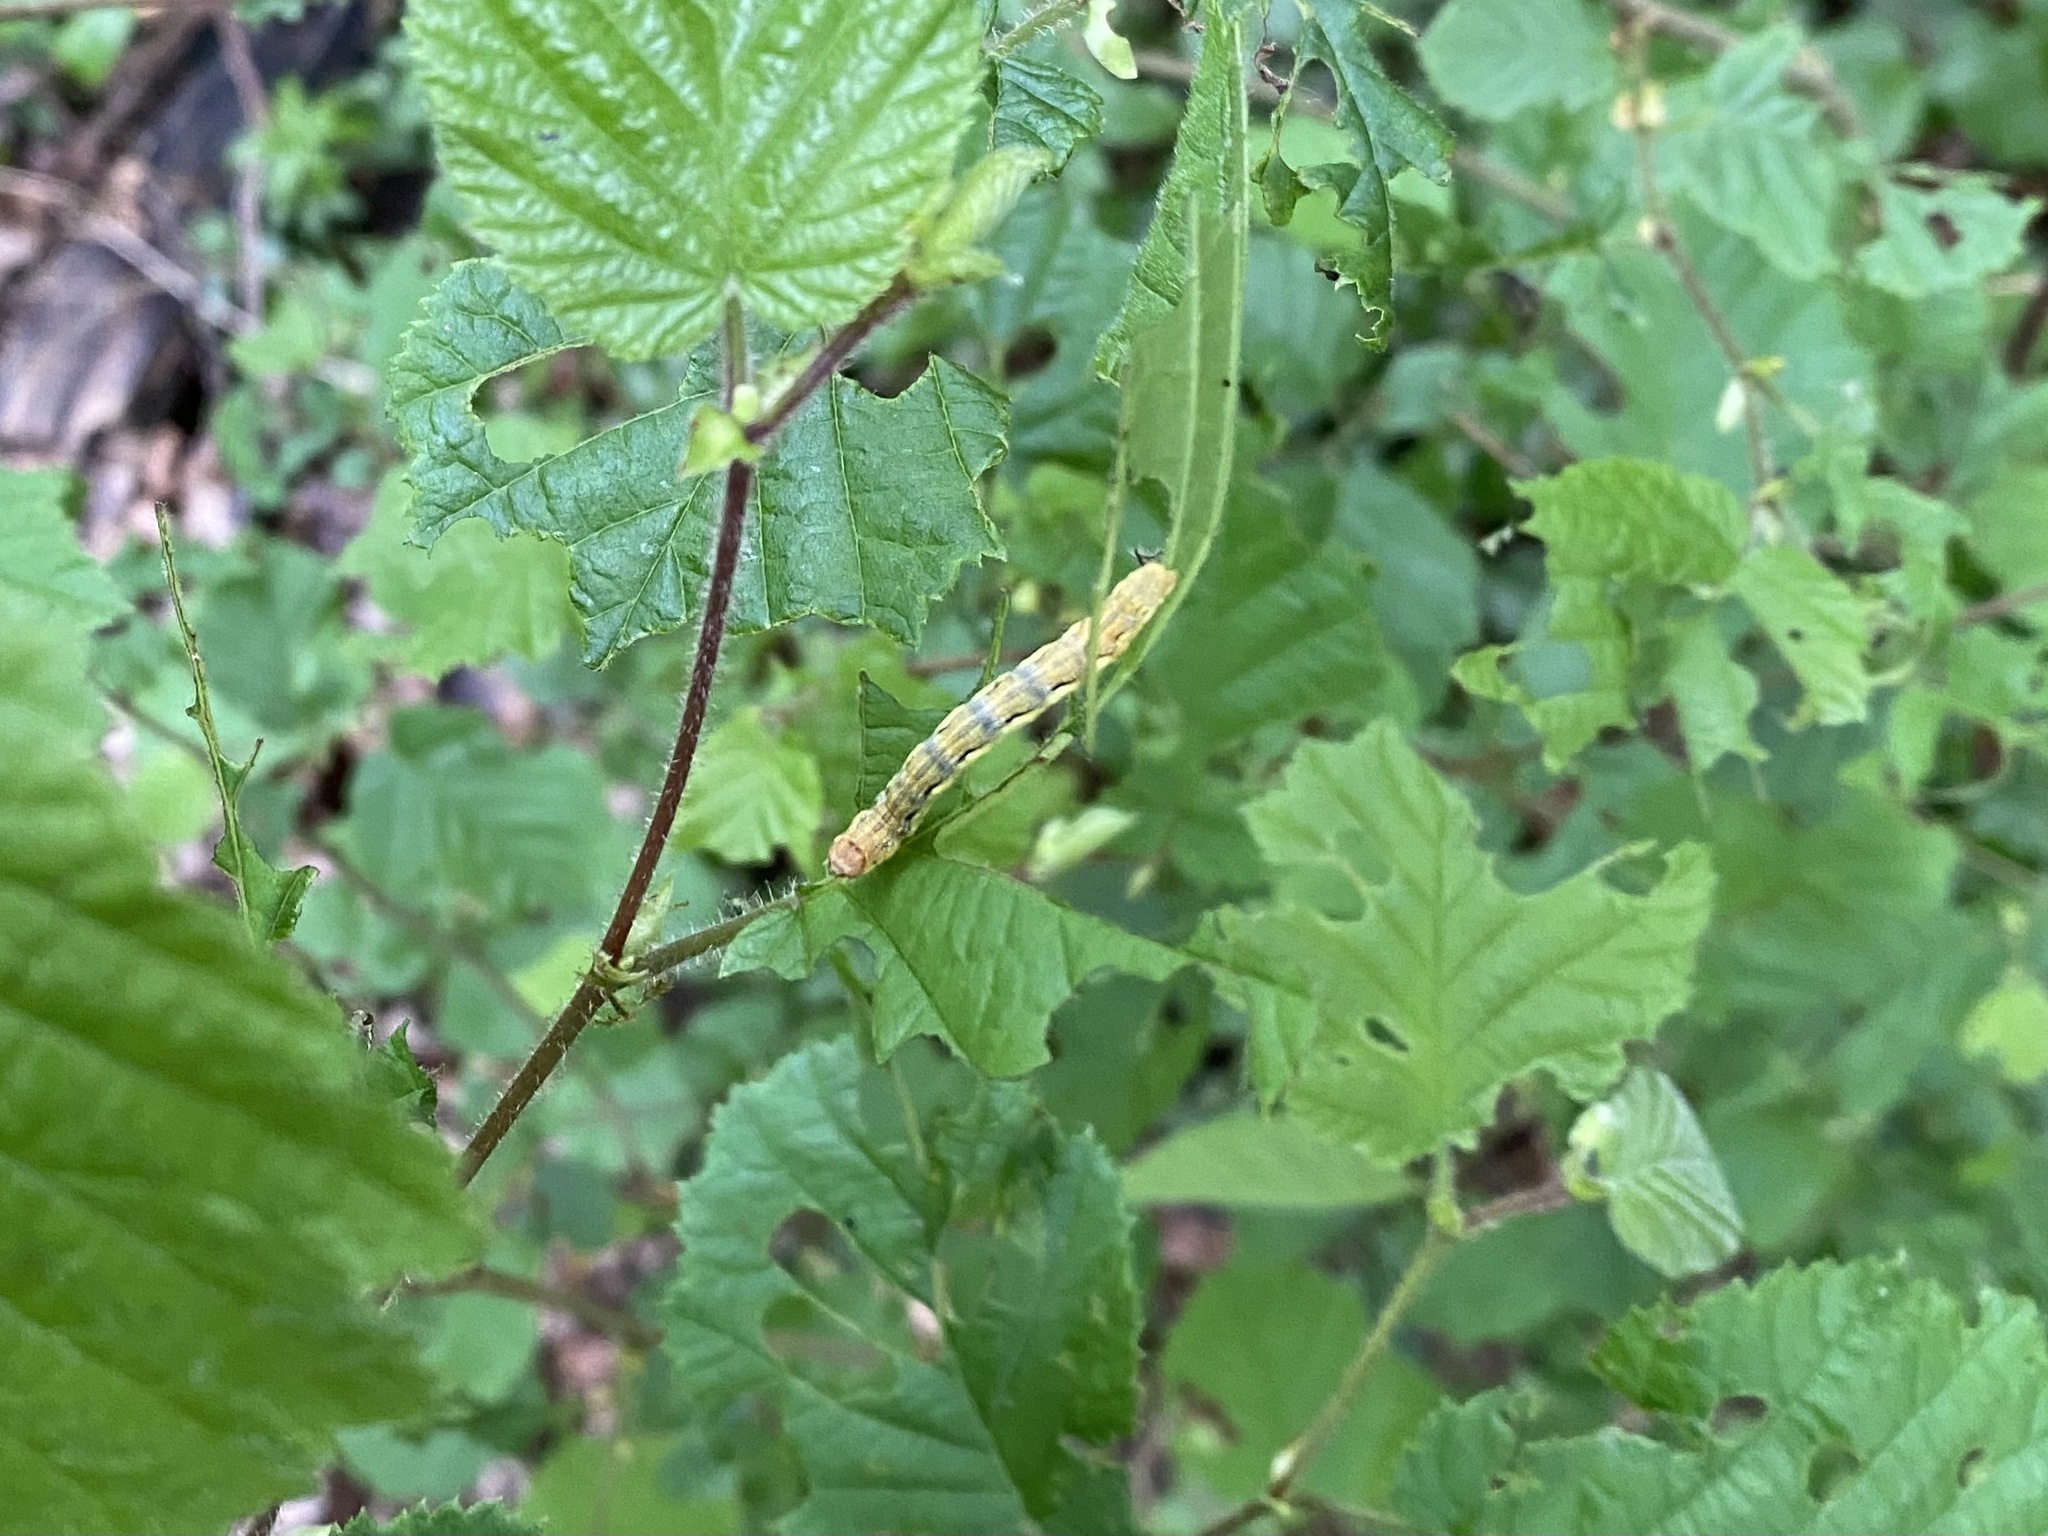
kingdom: Animalia
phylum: Arthropoda
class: Insecta
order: Lepidoptera
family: Geometridae
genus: Erannis
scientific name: Erannis defoliaria
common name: Mottled umber
